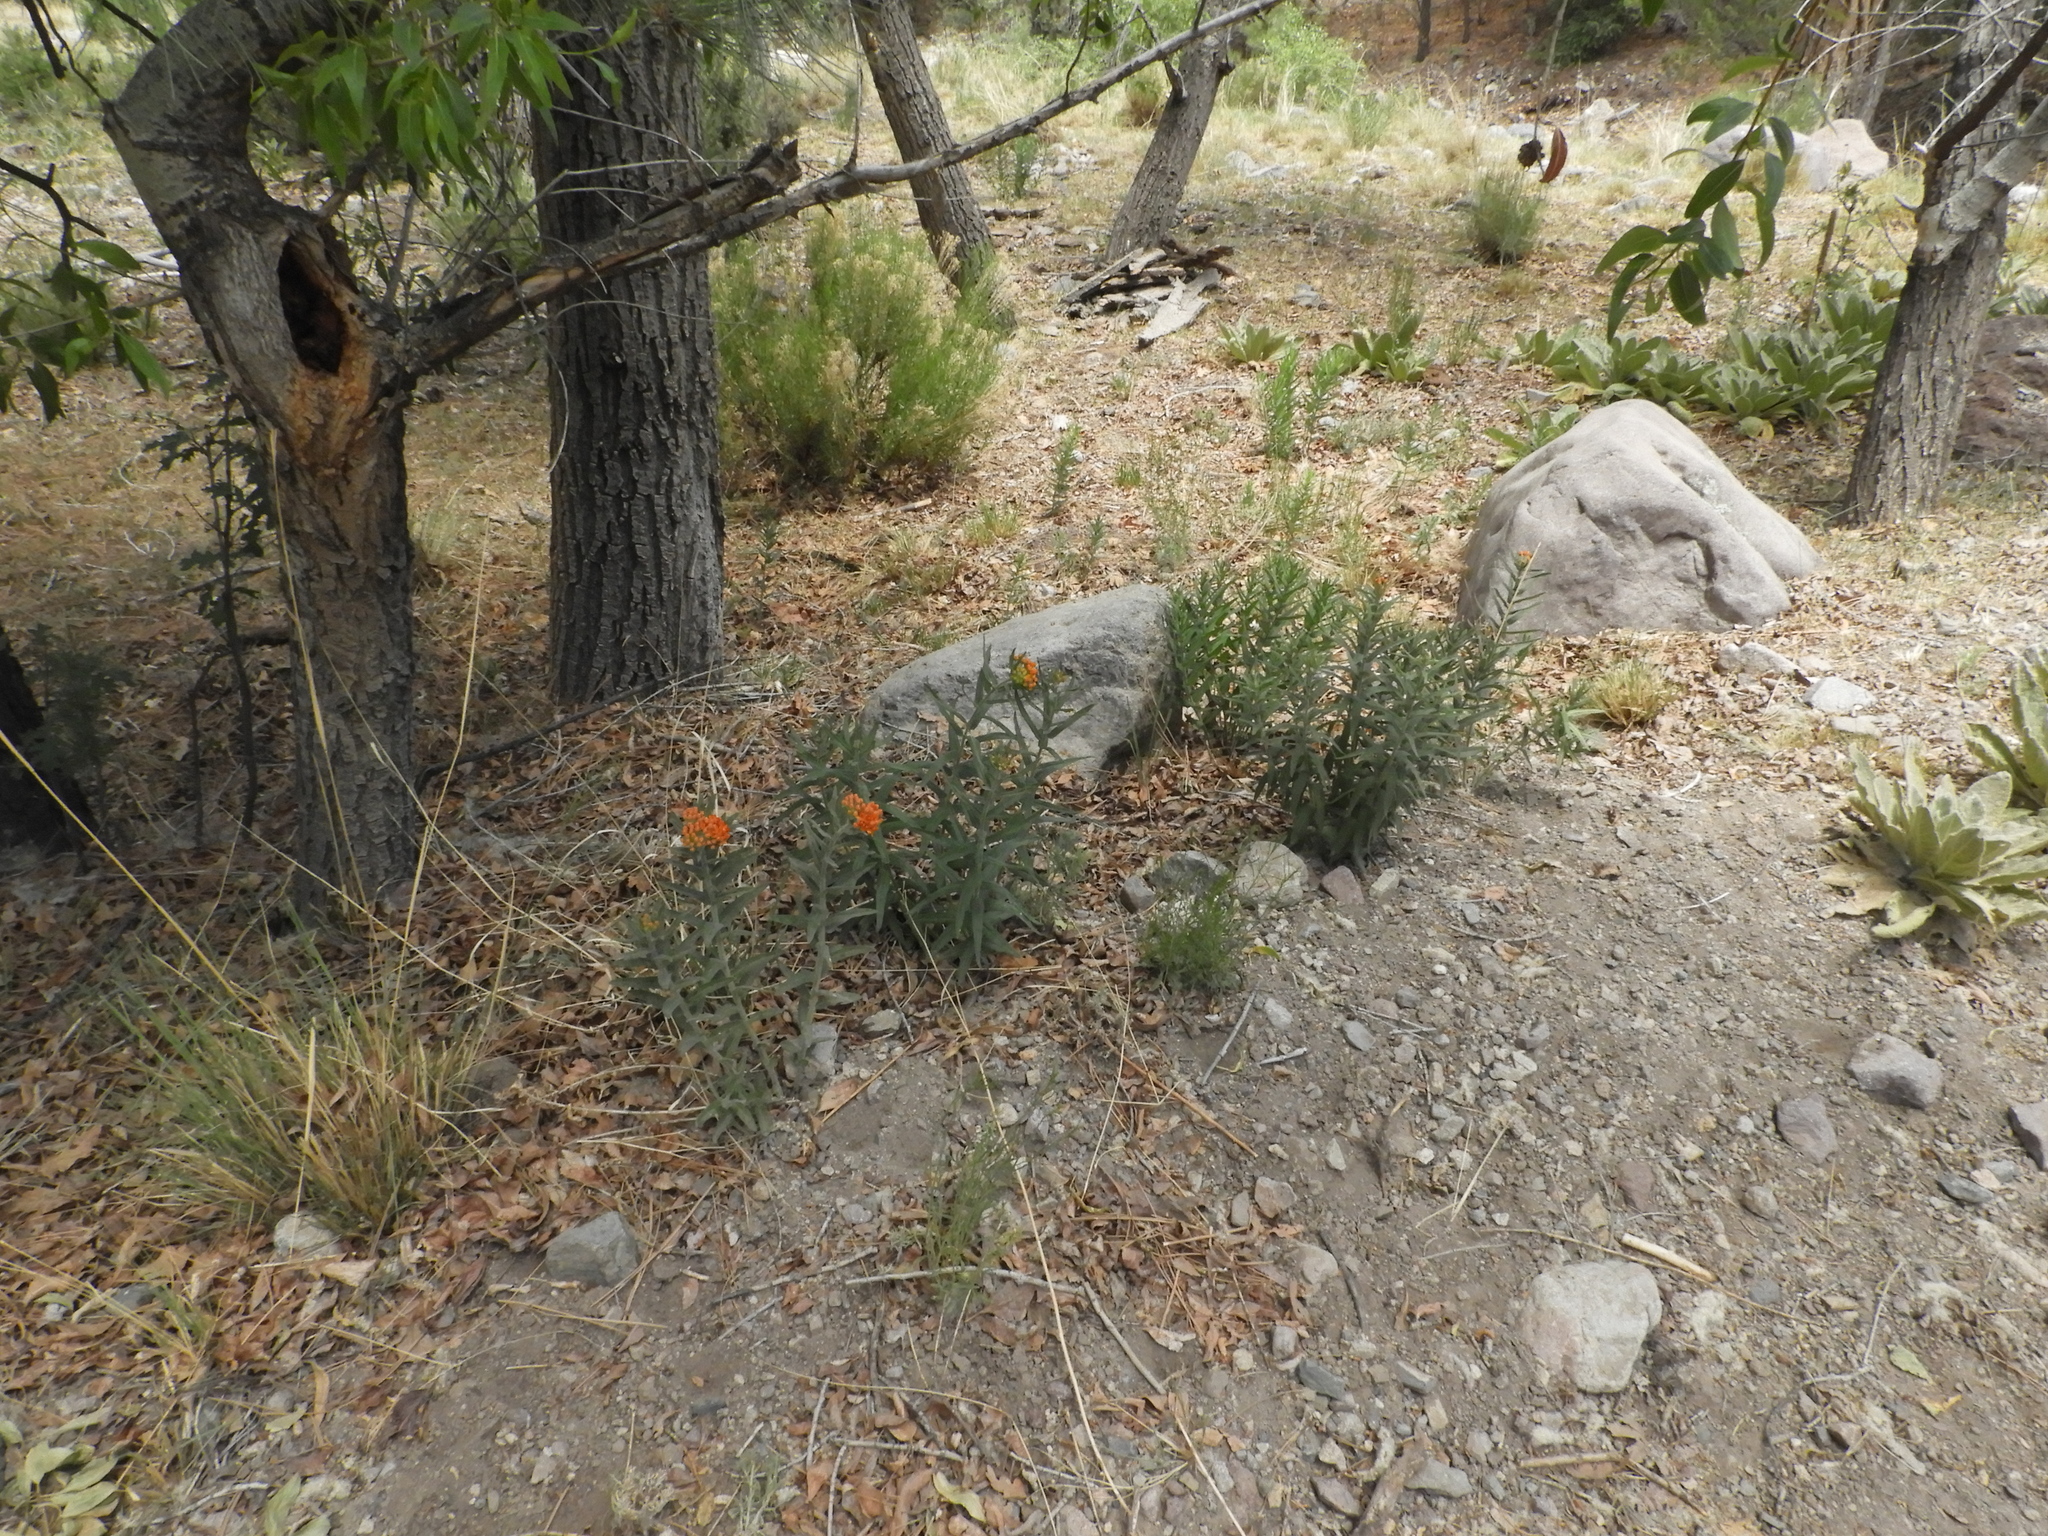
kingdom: Plantae
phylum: Tracheophyta
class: Magnoliopsida
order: Gentianales
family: Apocynaceae
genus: Asclepias
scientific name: Asclepias tuberosa
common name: Butterfly milkweed
